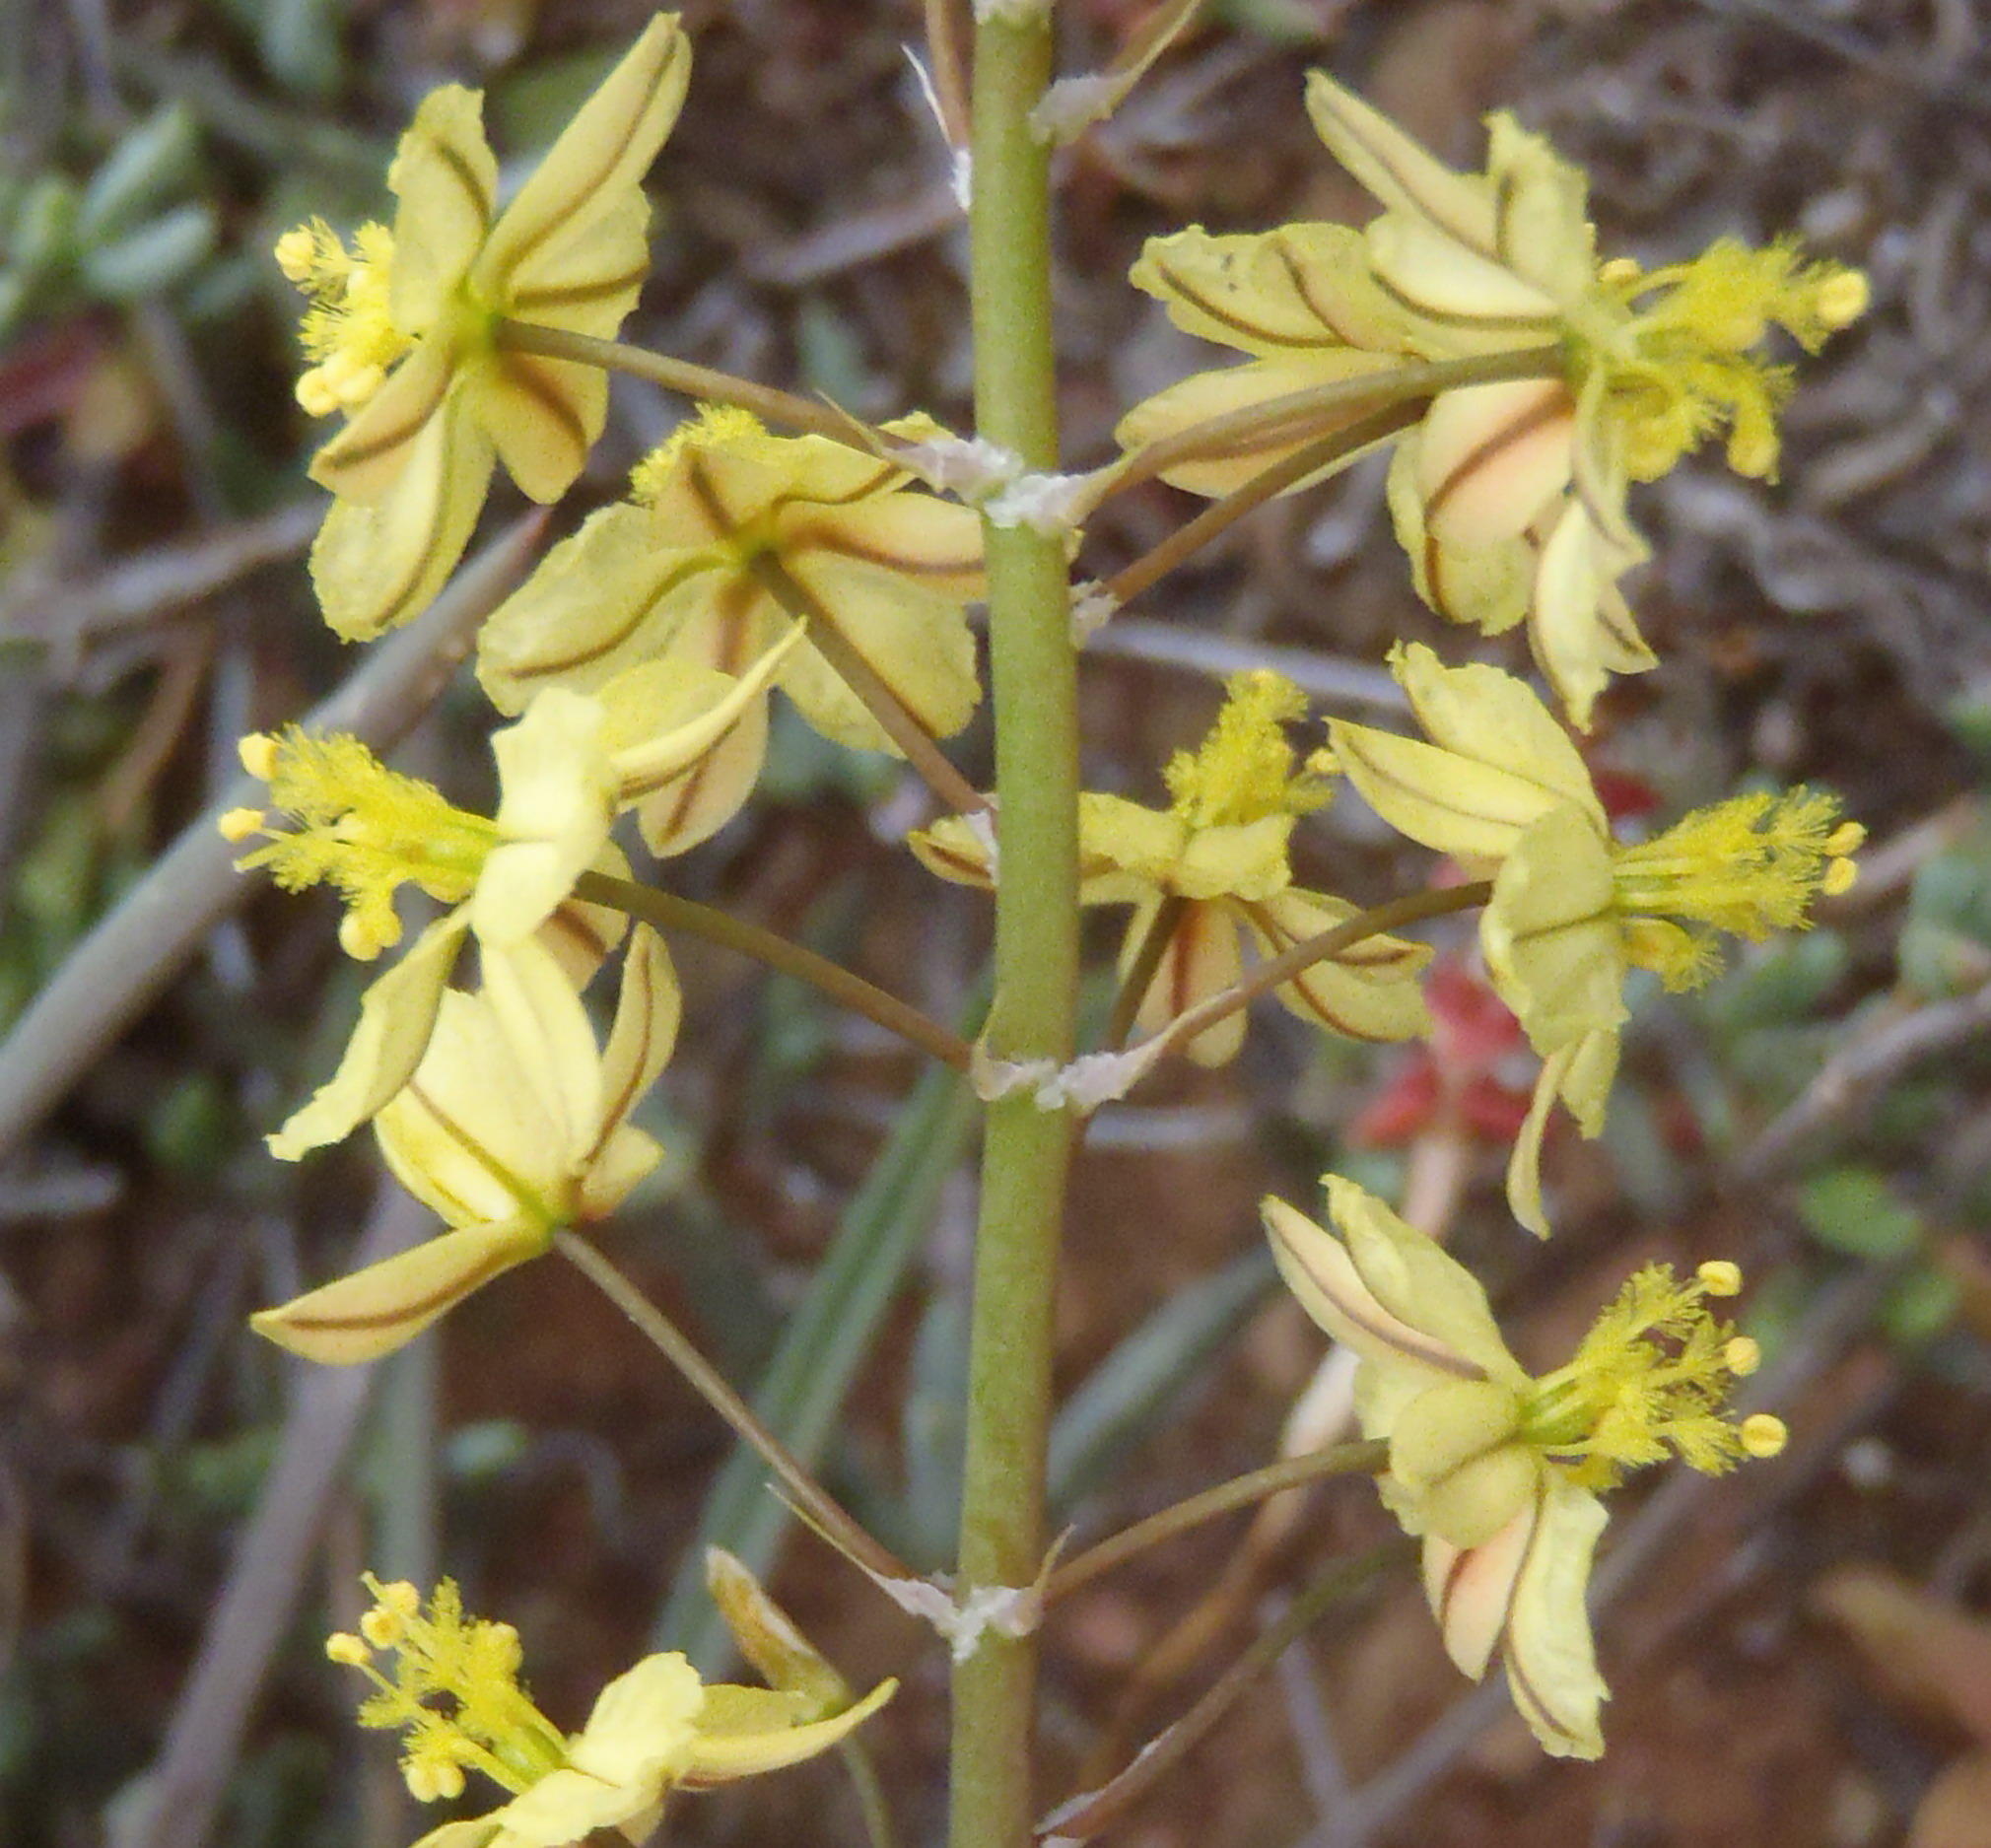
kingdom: Plantae
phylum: Tracheophyta
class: Liliopsida
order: Asparagales
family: Asphodelaceae
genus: Bulbine
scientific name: Bulbine frutescens
